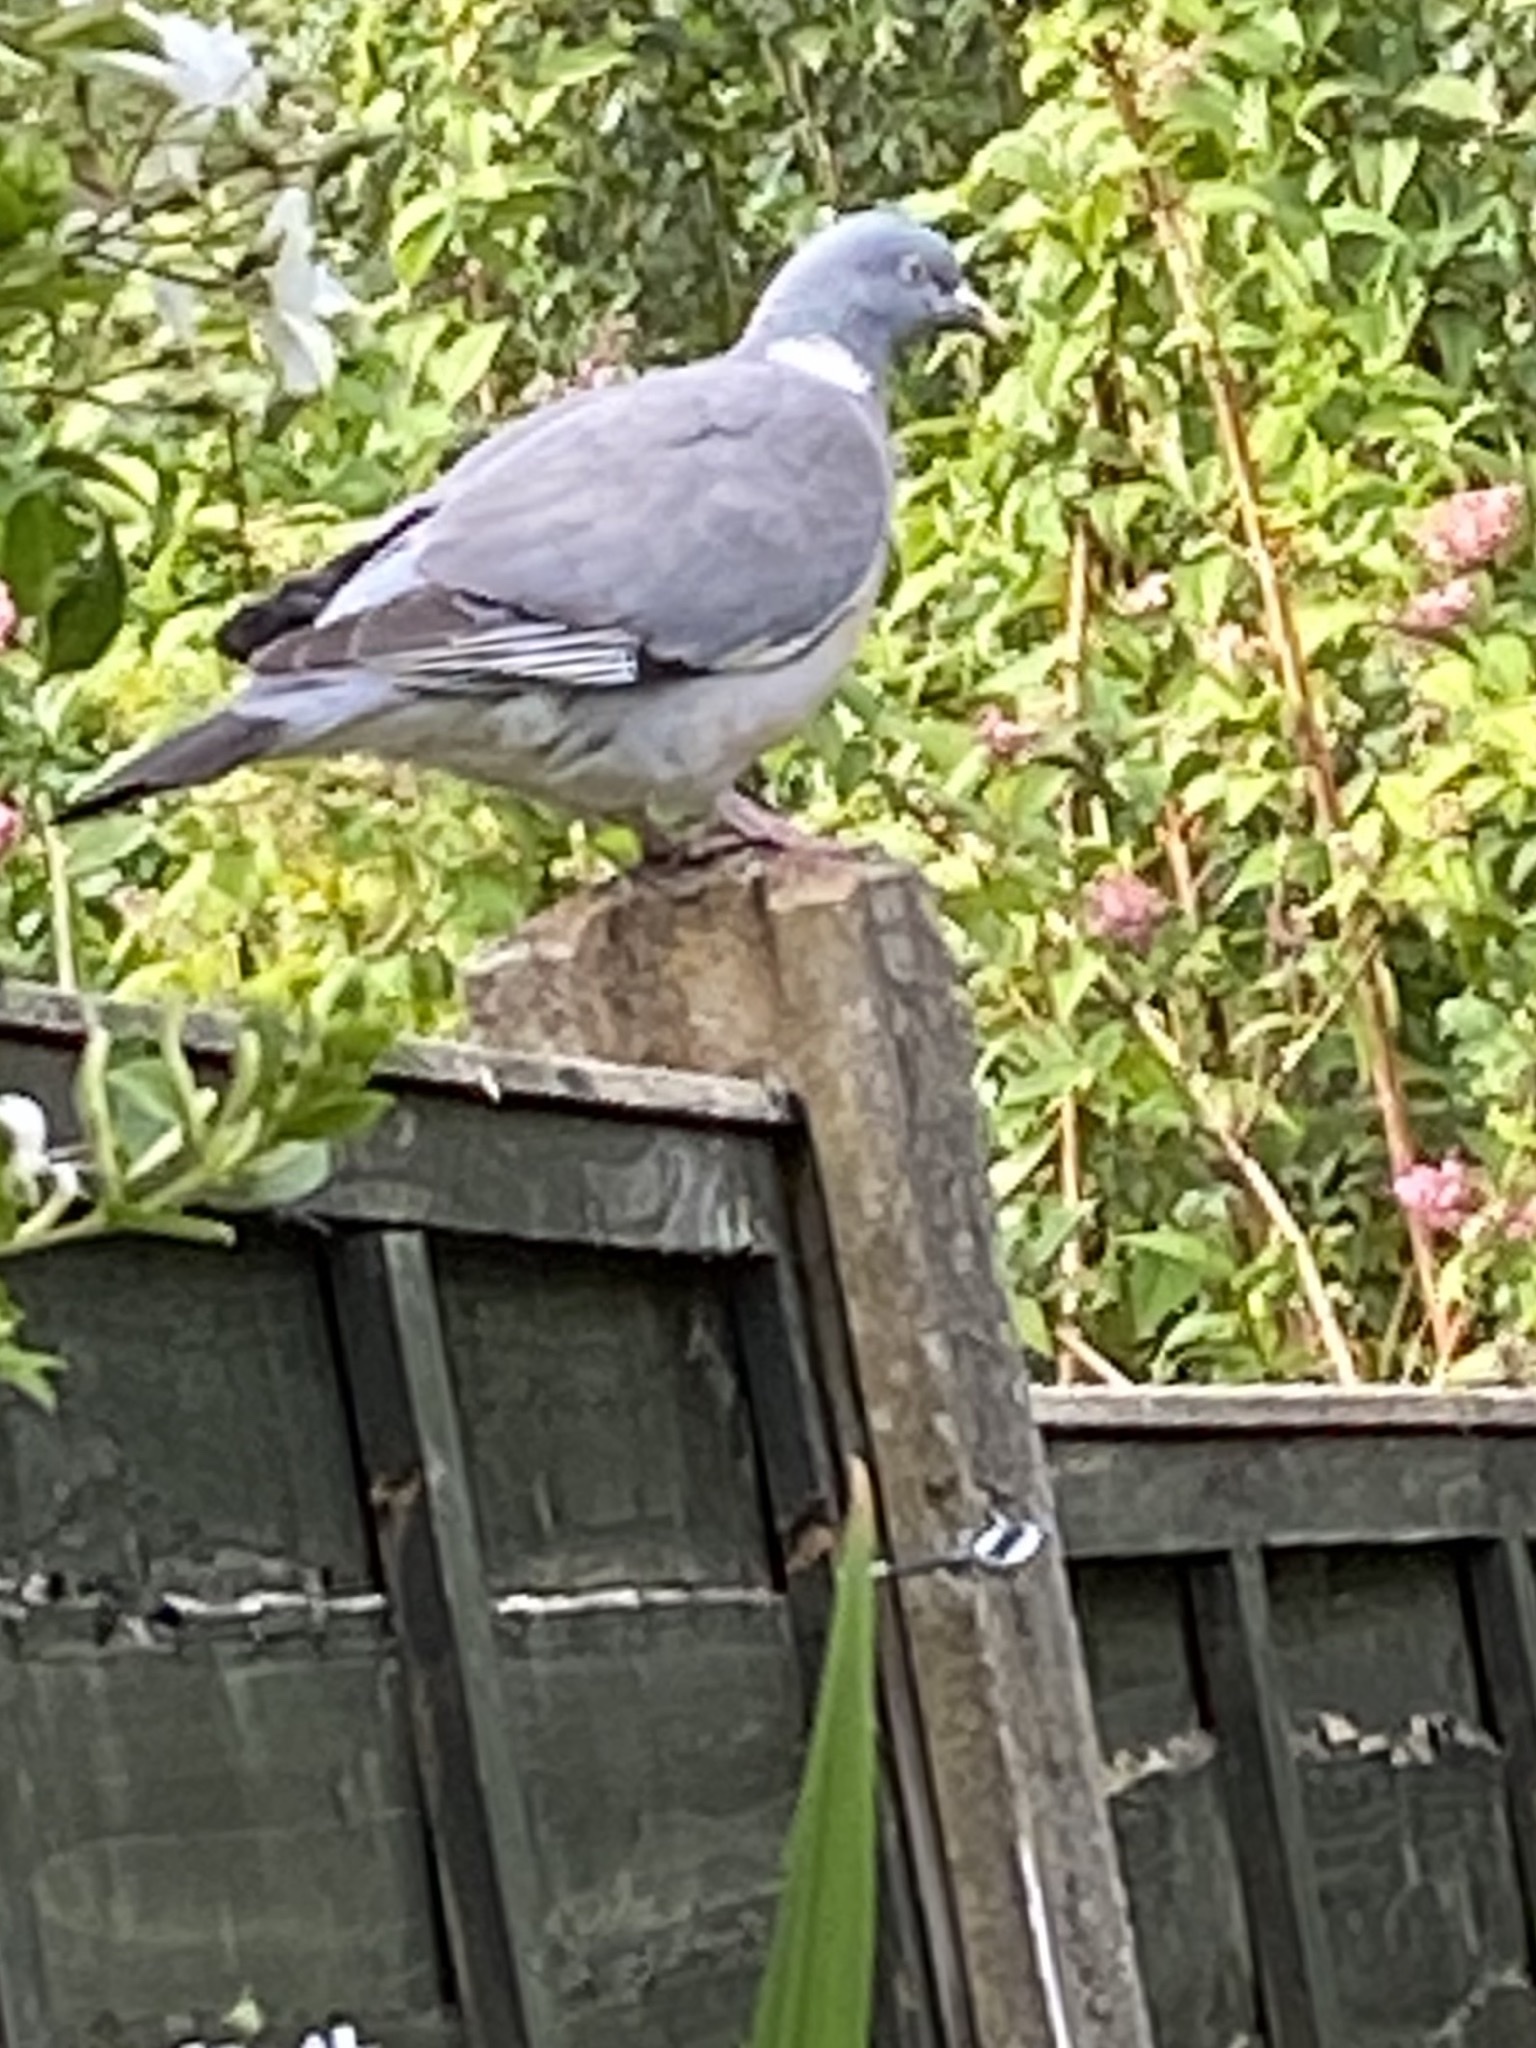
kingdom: Animalia
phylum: Chordata
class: Aves
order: Columbiformes
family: Columbidae
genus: Columba
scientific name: Columba palumbus
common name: Common wood pigeon
